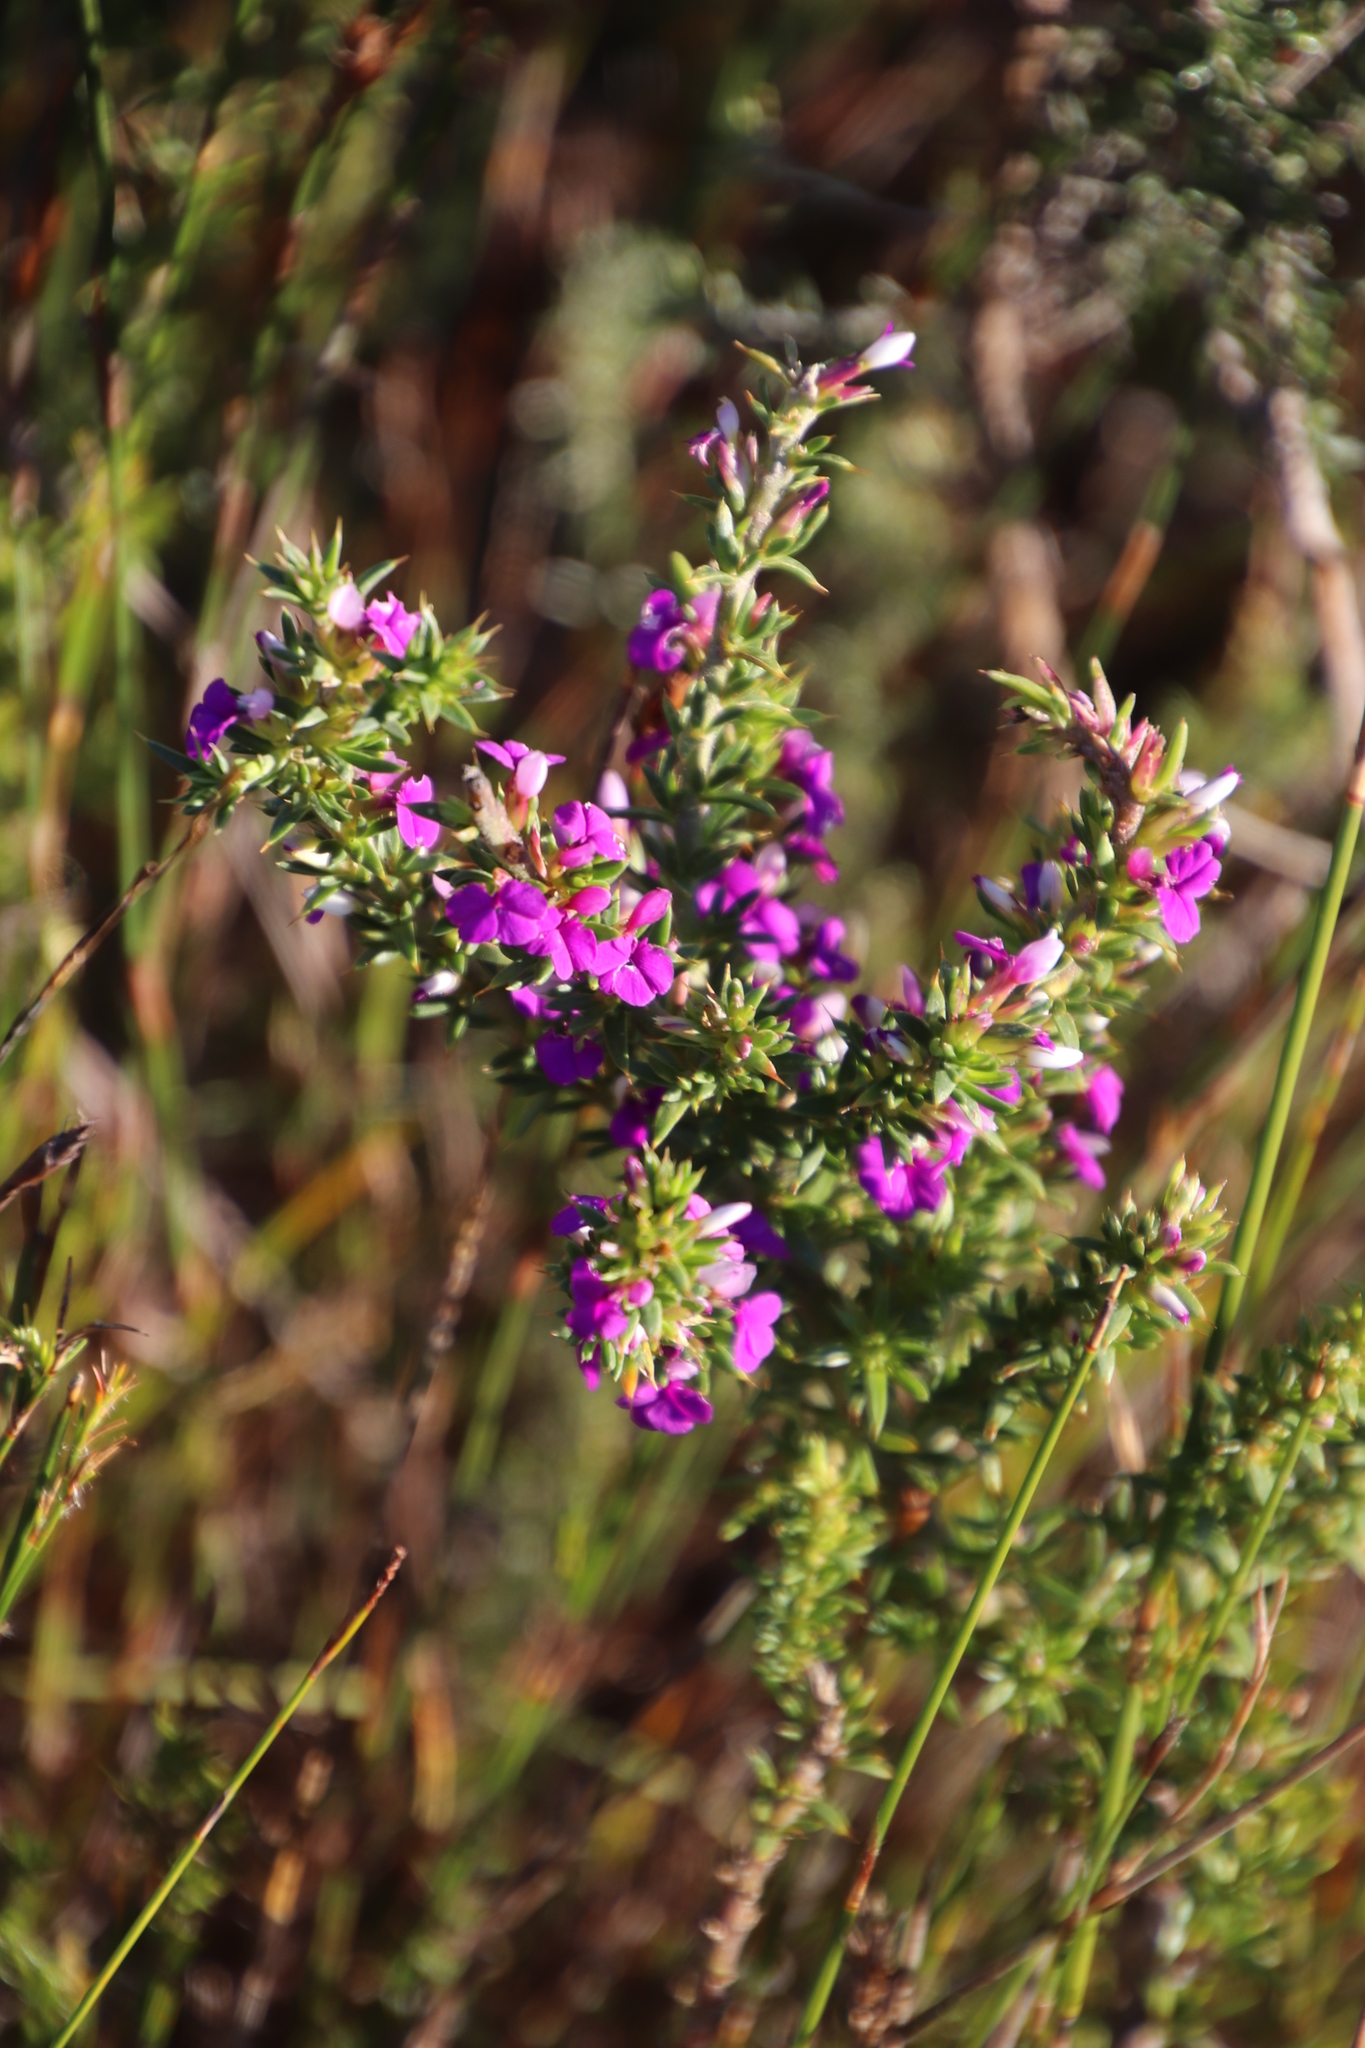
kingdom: Plantae
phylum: Tracheophyta
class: Magnoliopsida
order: Fabales
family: Polygalaceae
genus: Muraltia
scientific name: Muraltia heisteria
